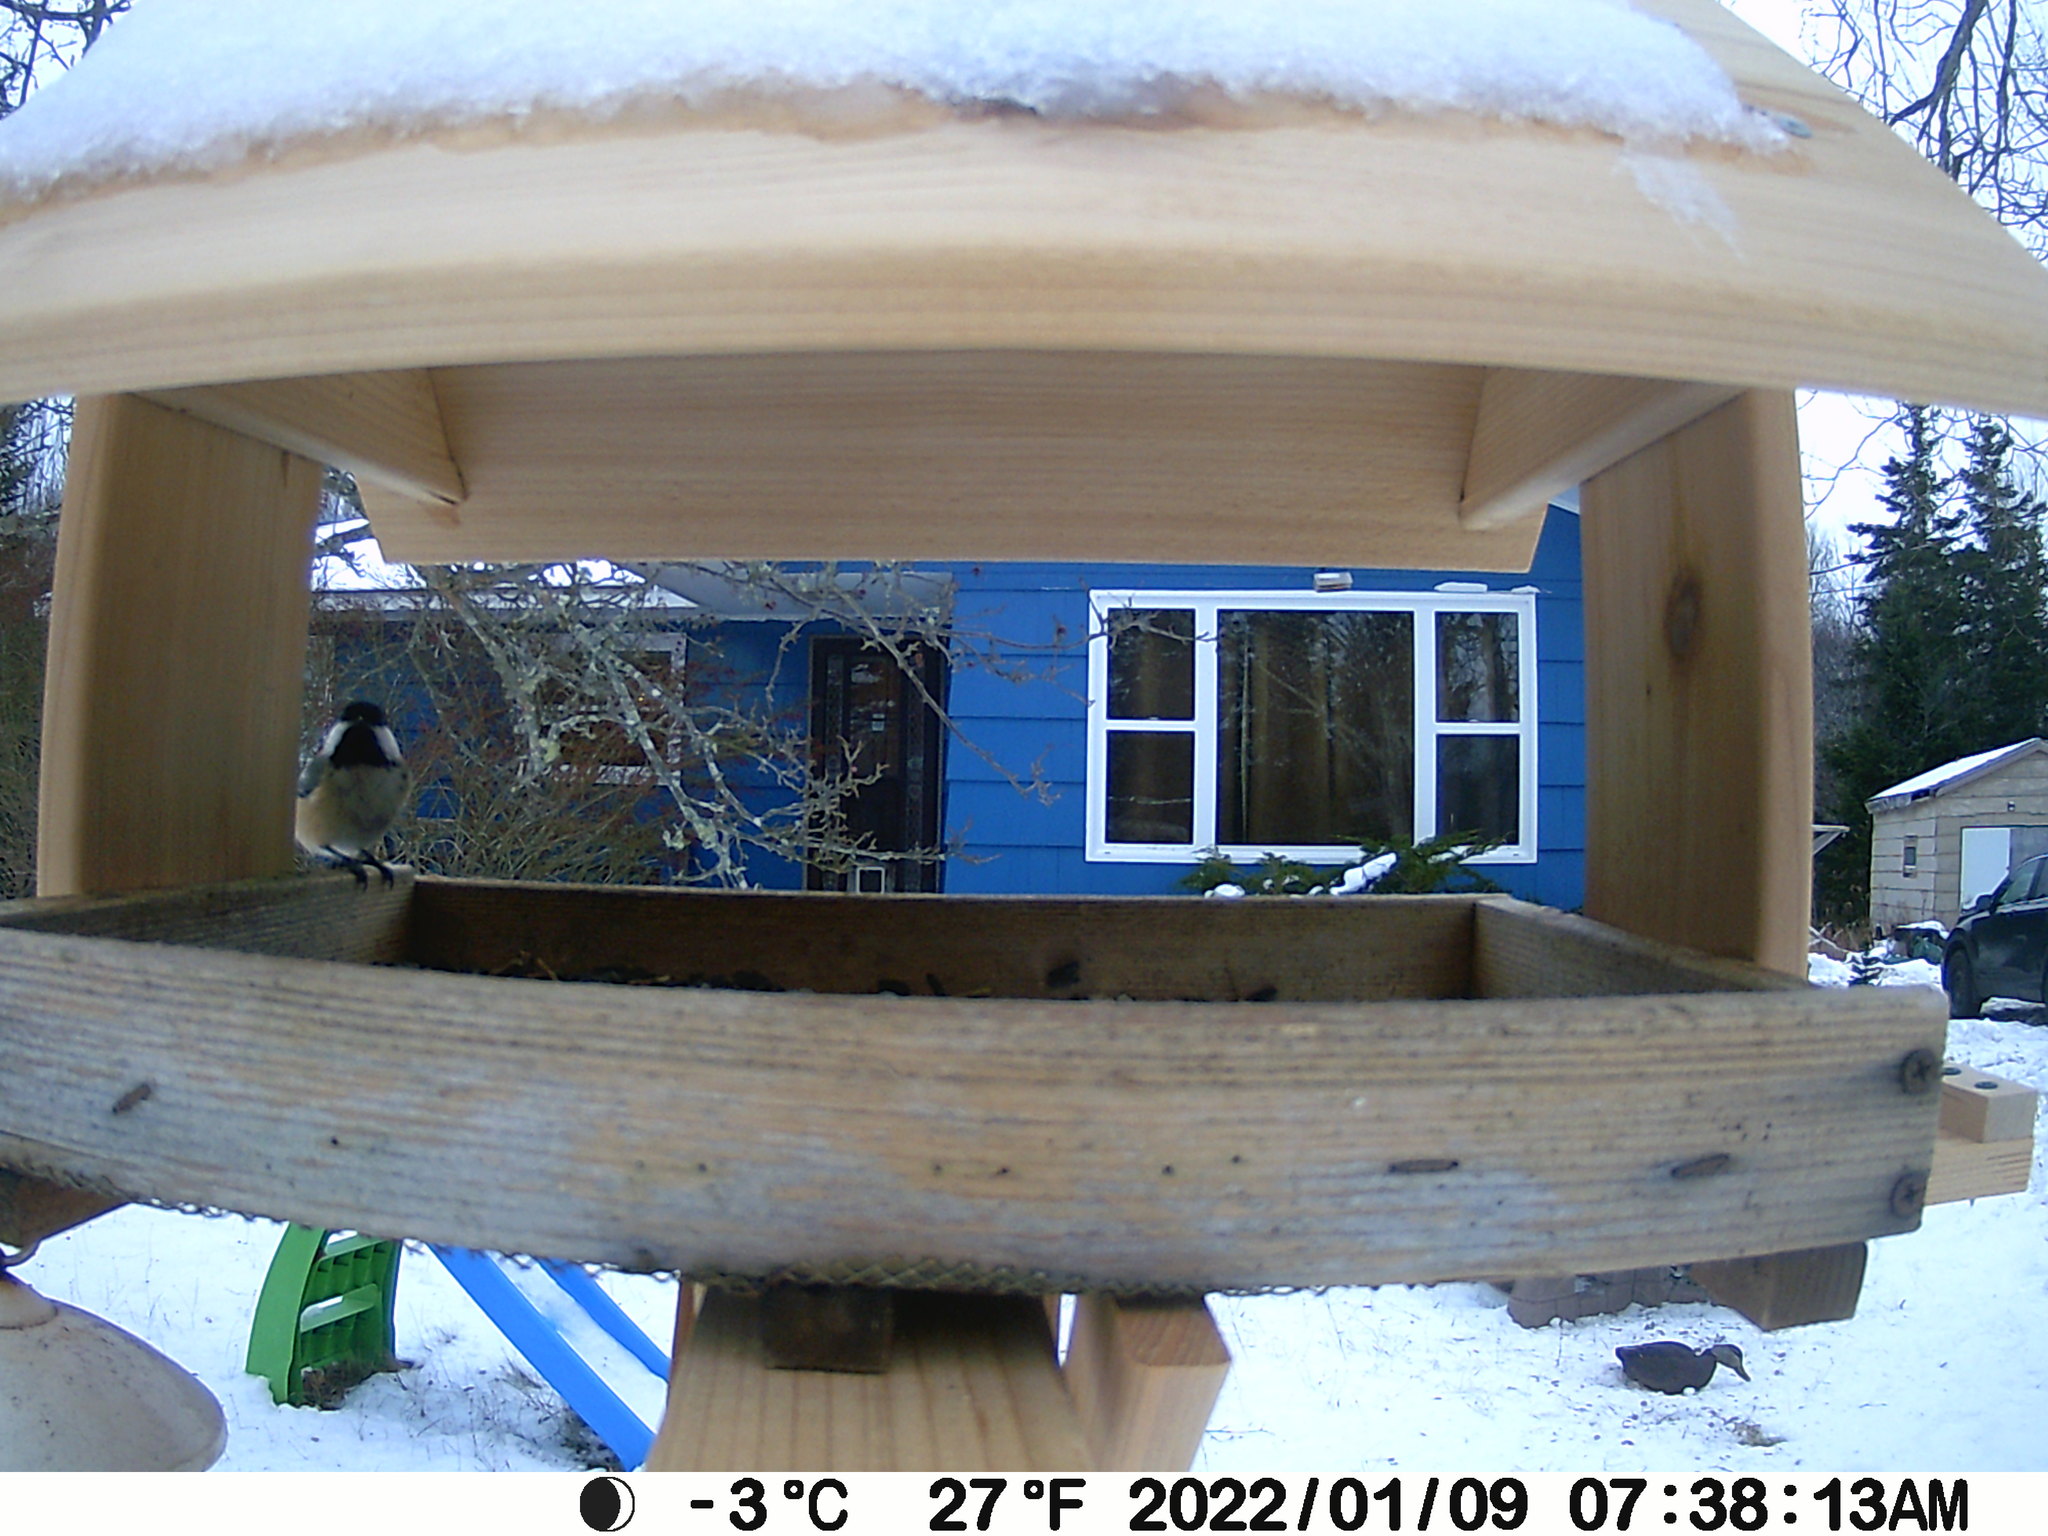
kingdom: Animalia
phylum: Chordata
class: Aves
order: Anseriformes
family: Anatidae
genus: Anas
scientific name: Anas rubripes
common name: American black duck
